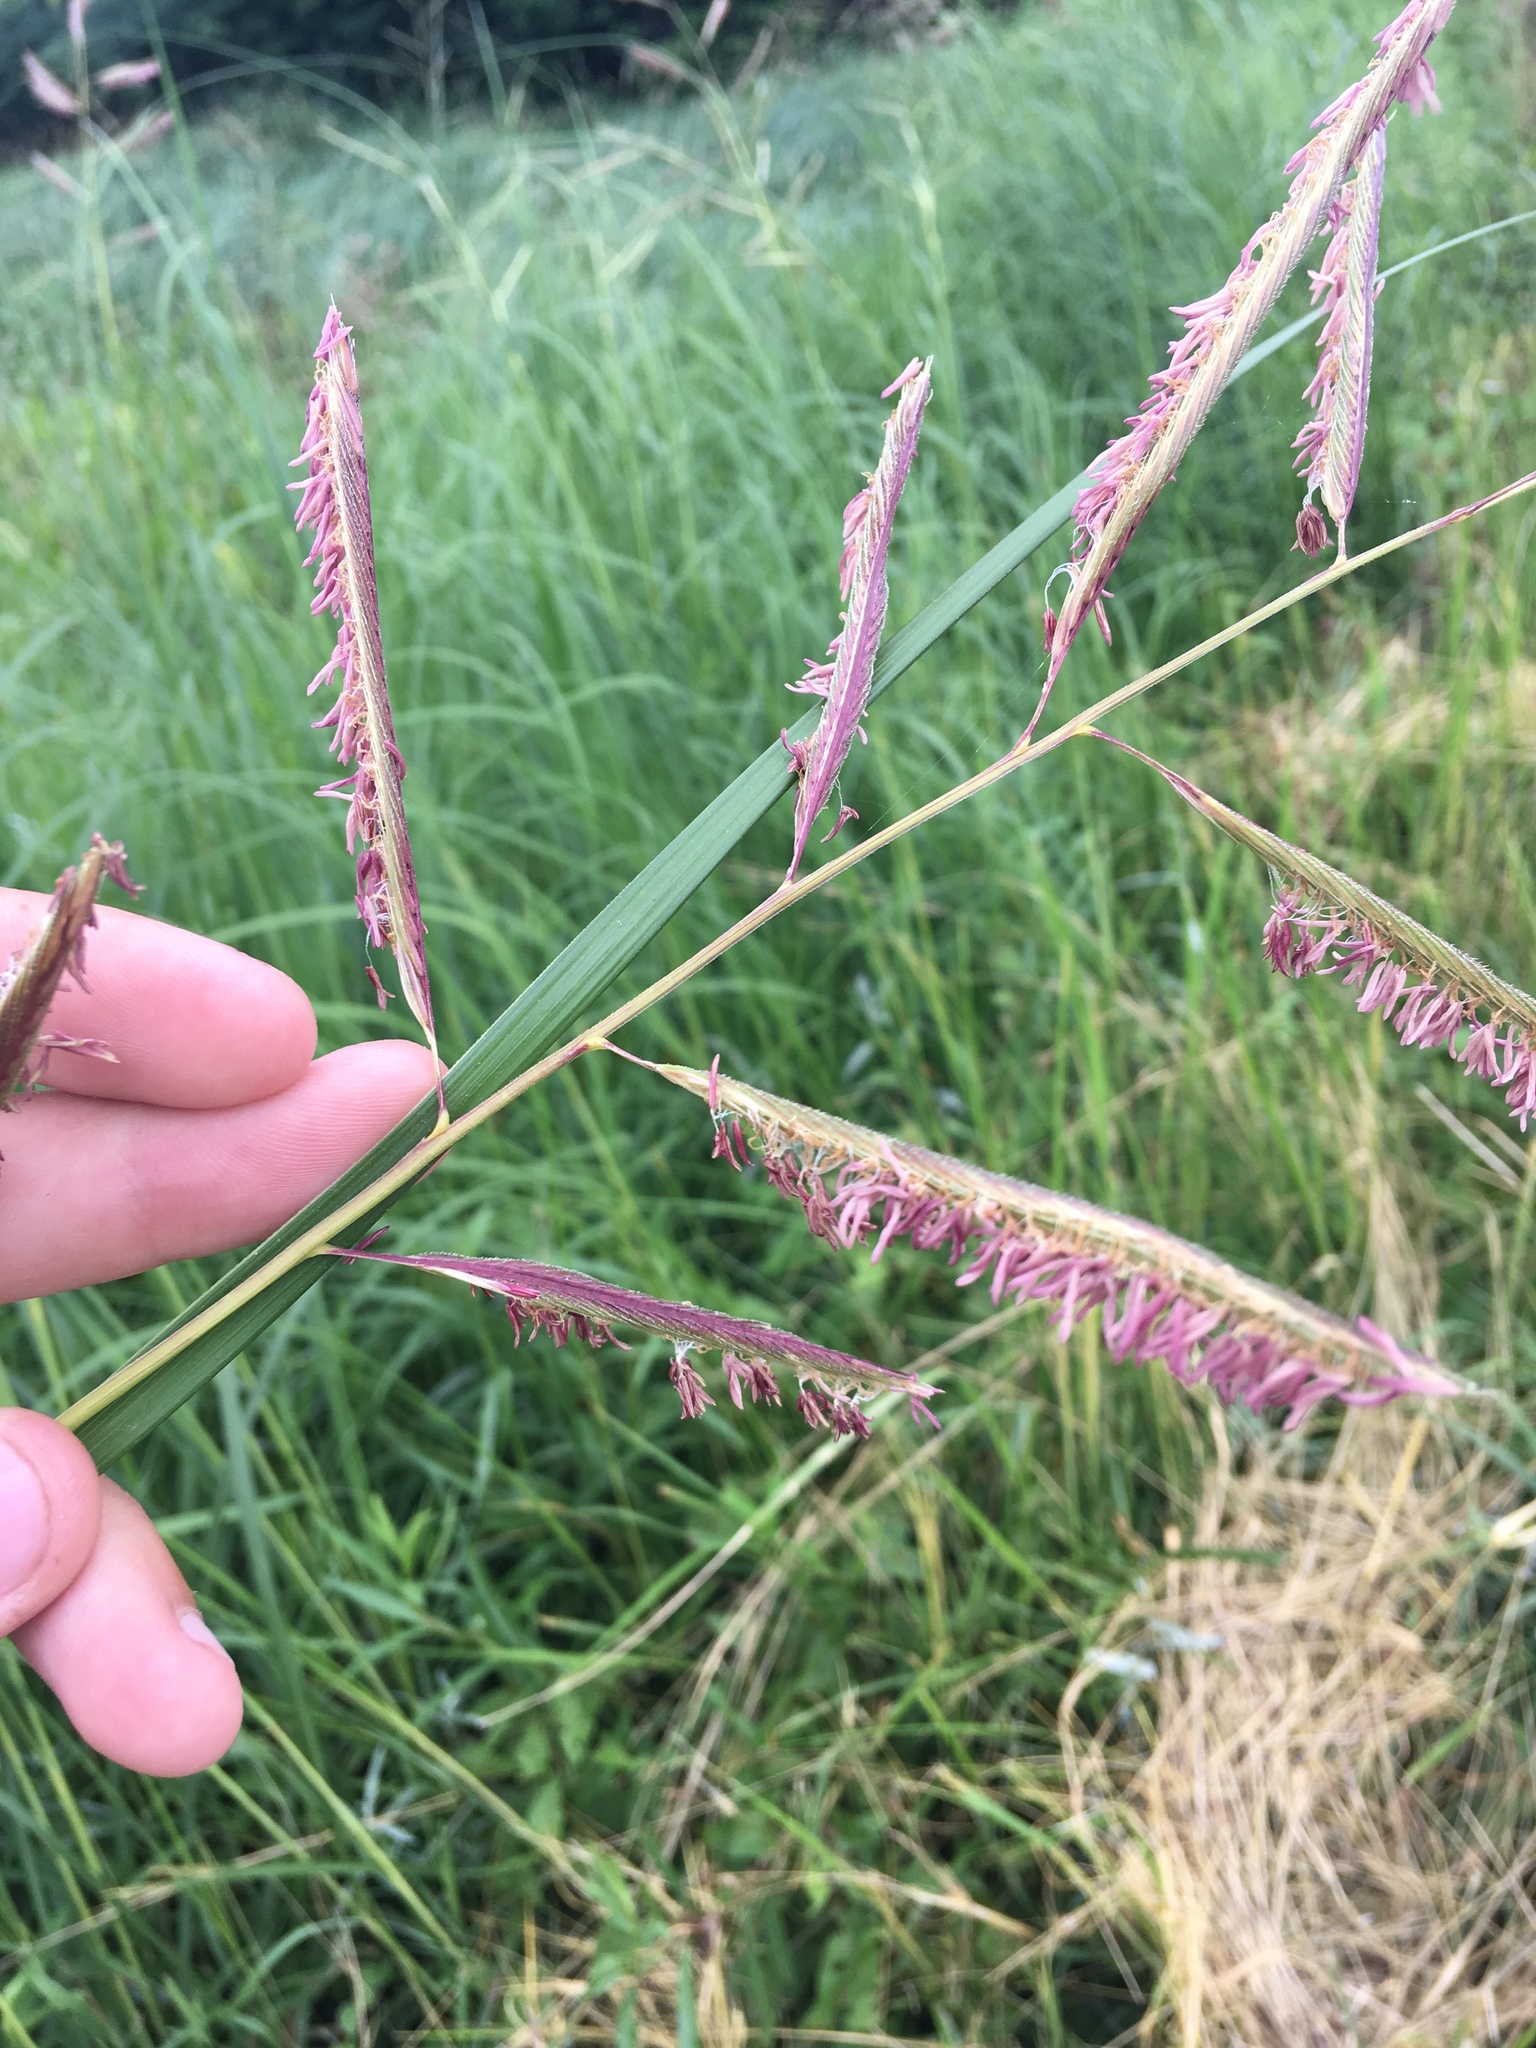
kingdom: Plantae
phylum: Tracheophyta
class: Liliopsida
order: Poales
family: Poaceae
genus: Sporobolus
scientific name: Sporobolus michauxianus
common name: Freshwater cordgrass
